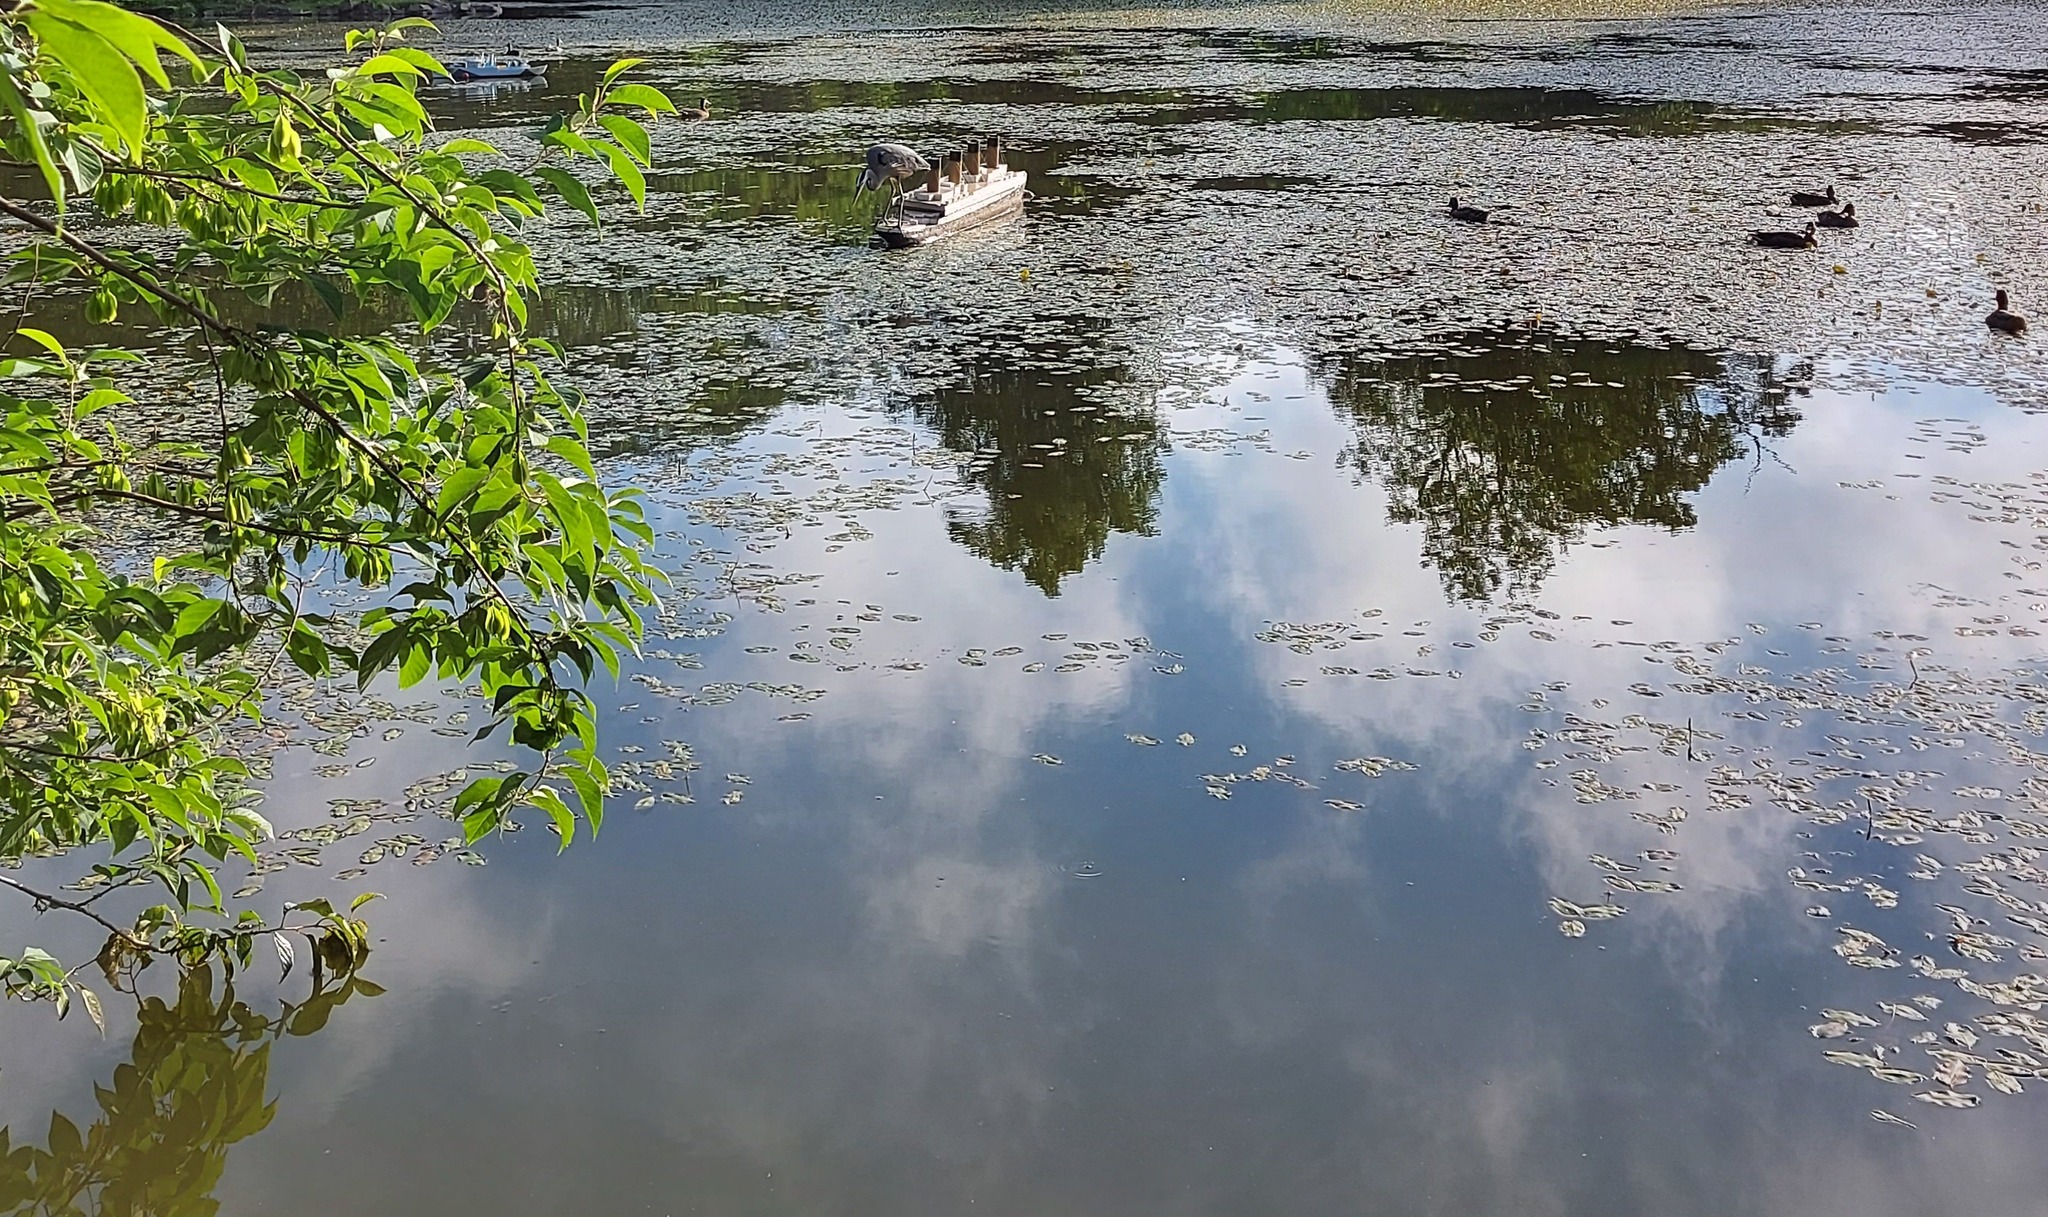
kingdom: Animalia
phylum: Chordata
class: Aves
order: Pelecaniformes
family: Ardeidae
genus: Ardea
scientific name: Ardea herodias
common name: Great blue heron
